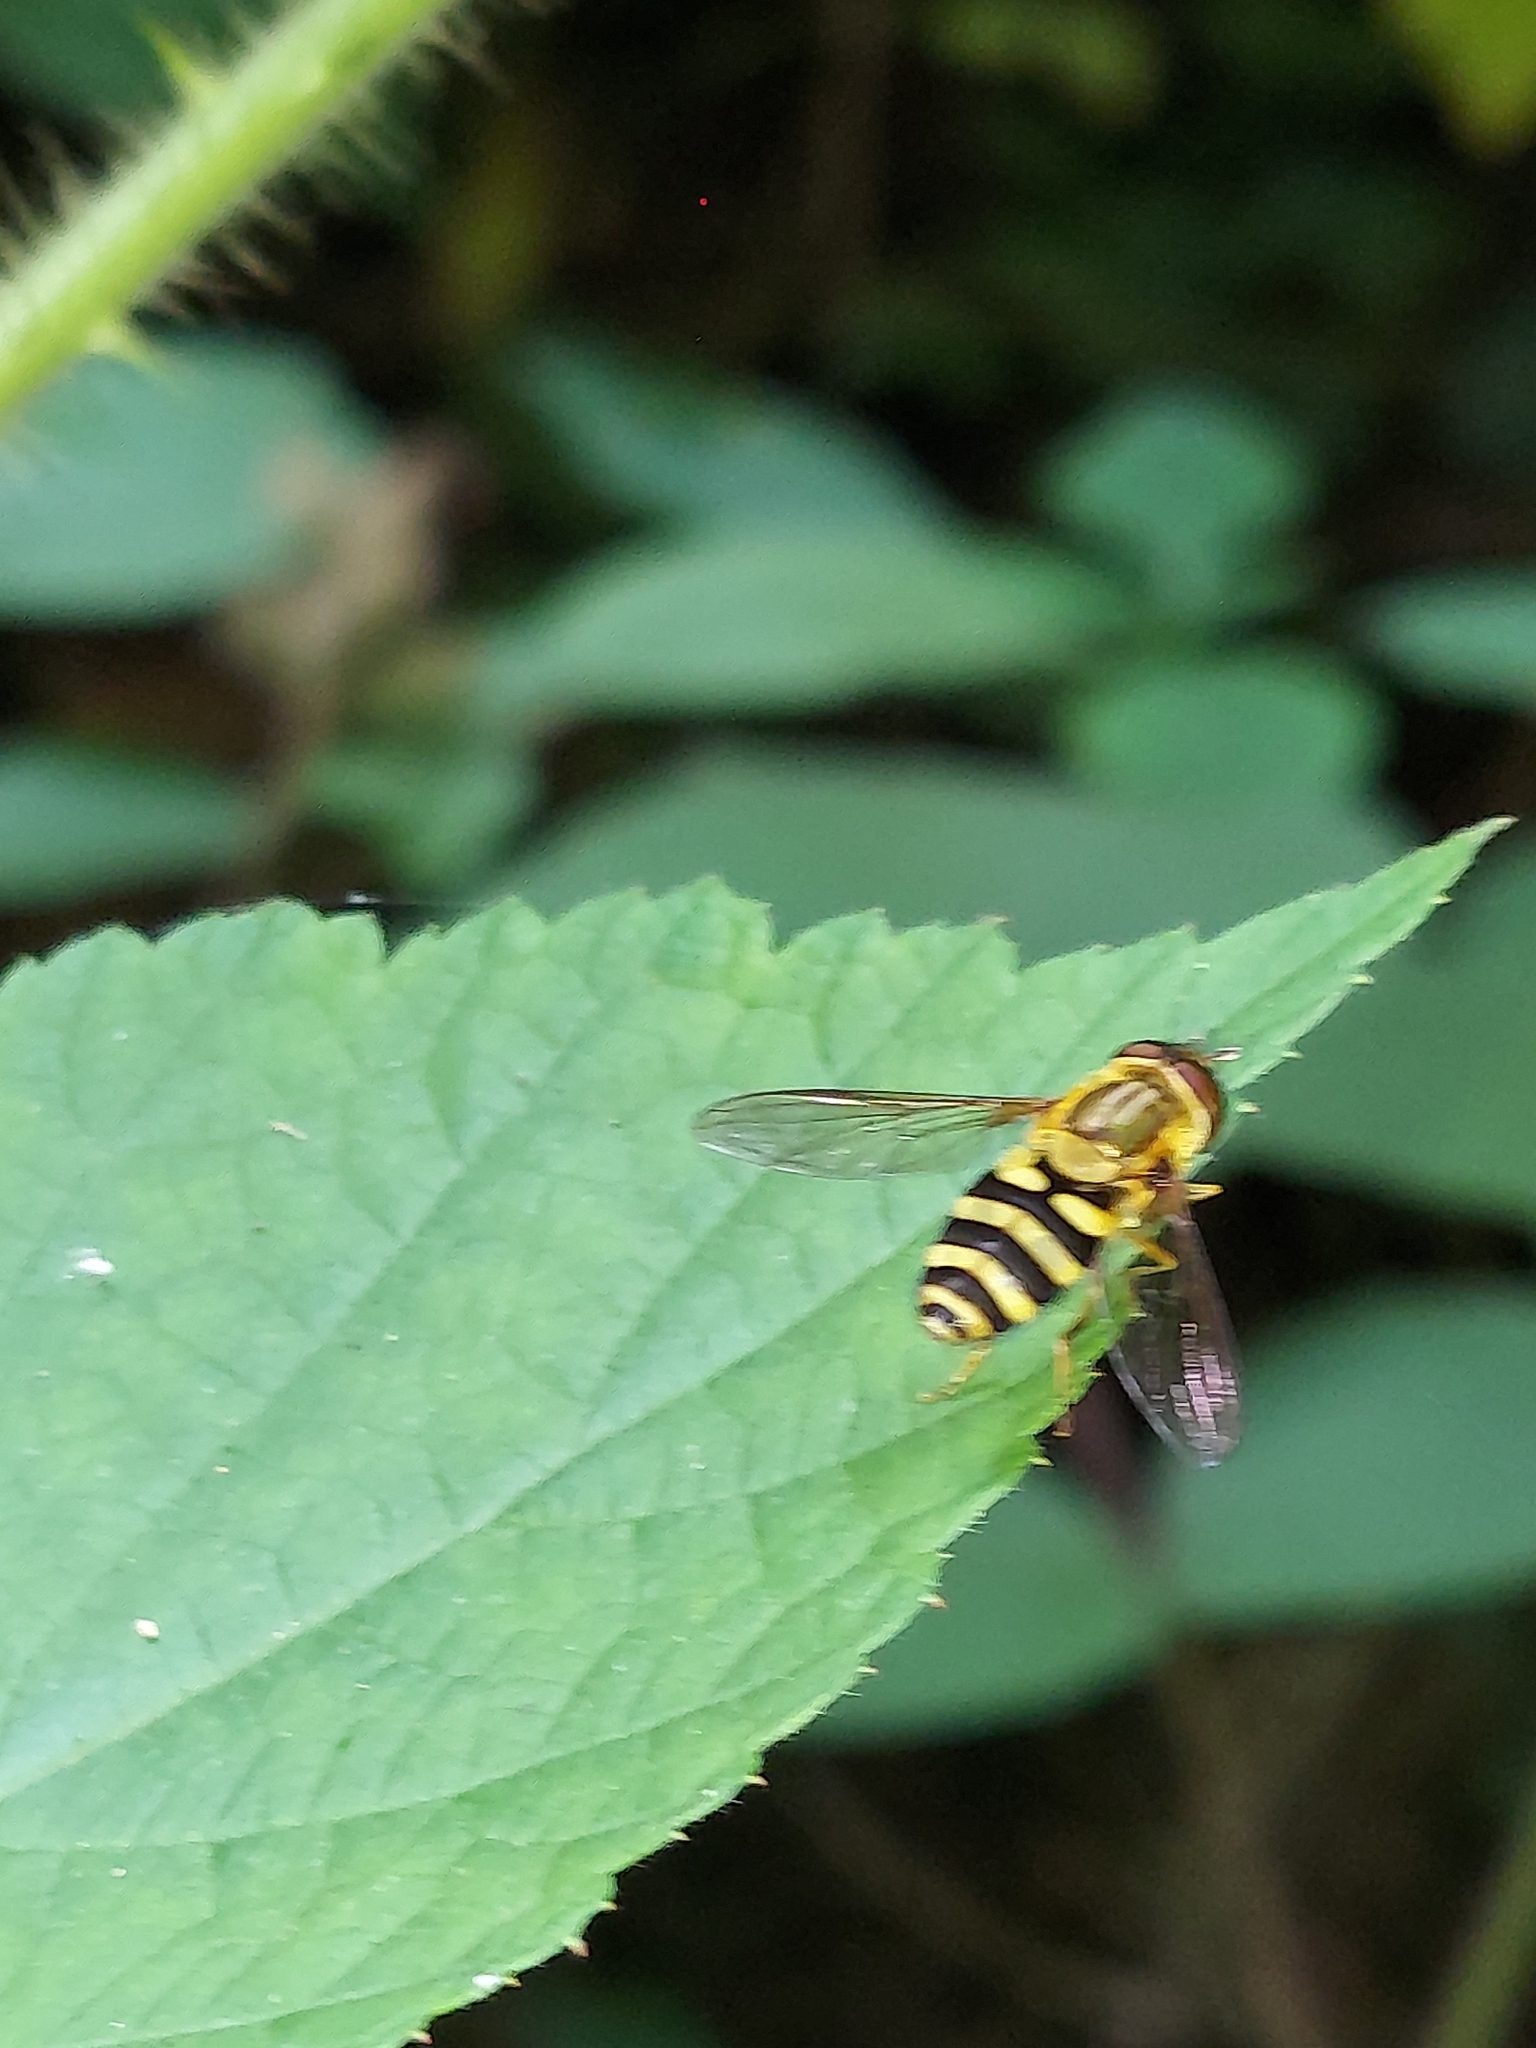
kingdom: Animalia
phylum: Arthropoda
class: Insecta
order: Diptera
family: Syrphidae
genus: Syrphus
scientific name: Syrphus knabi
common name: Eastern flower fly
